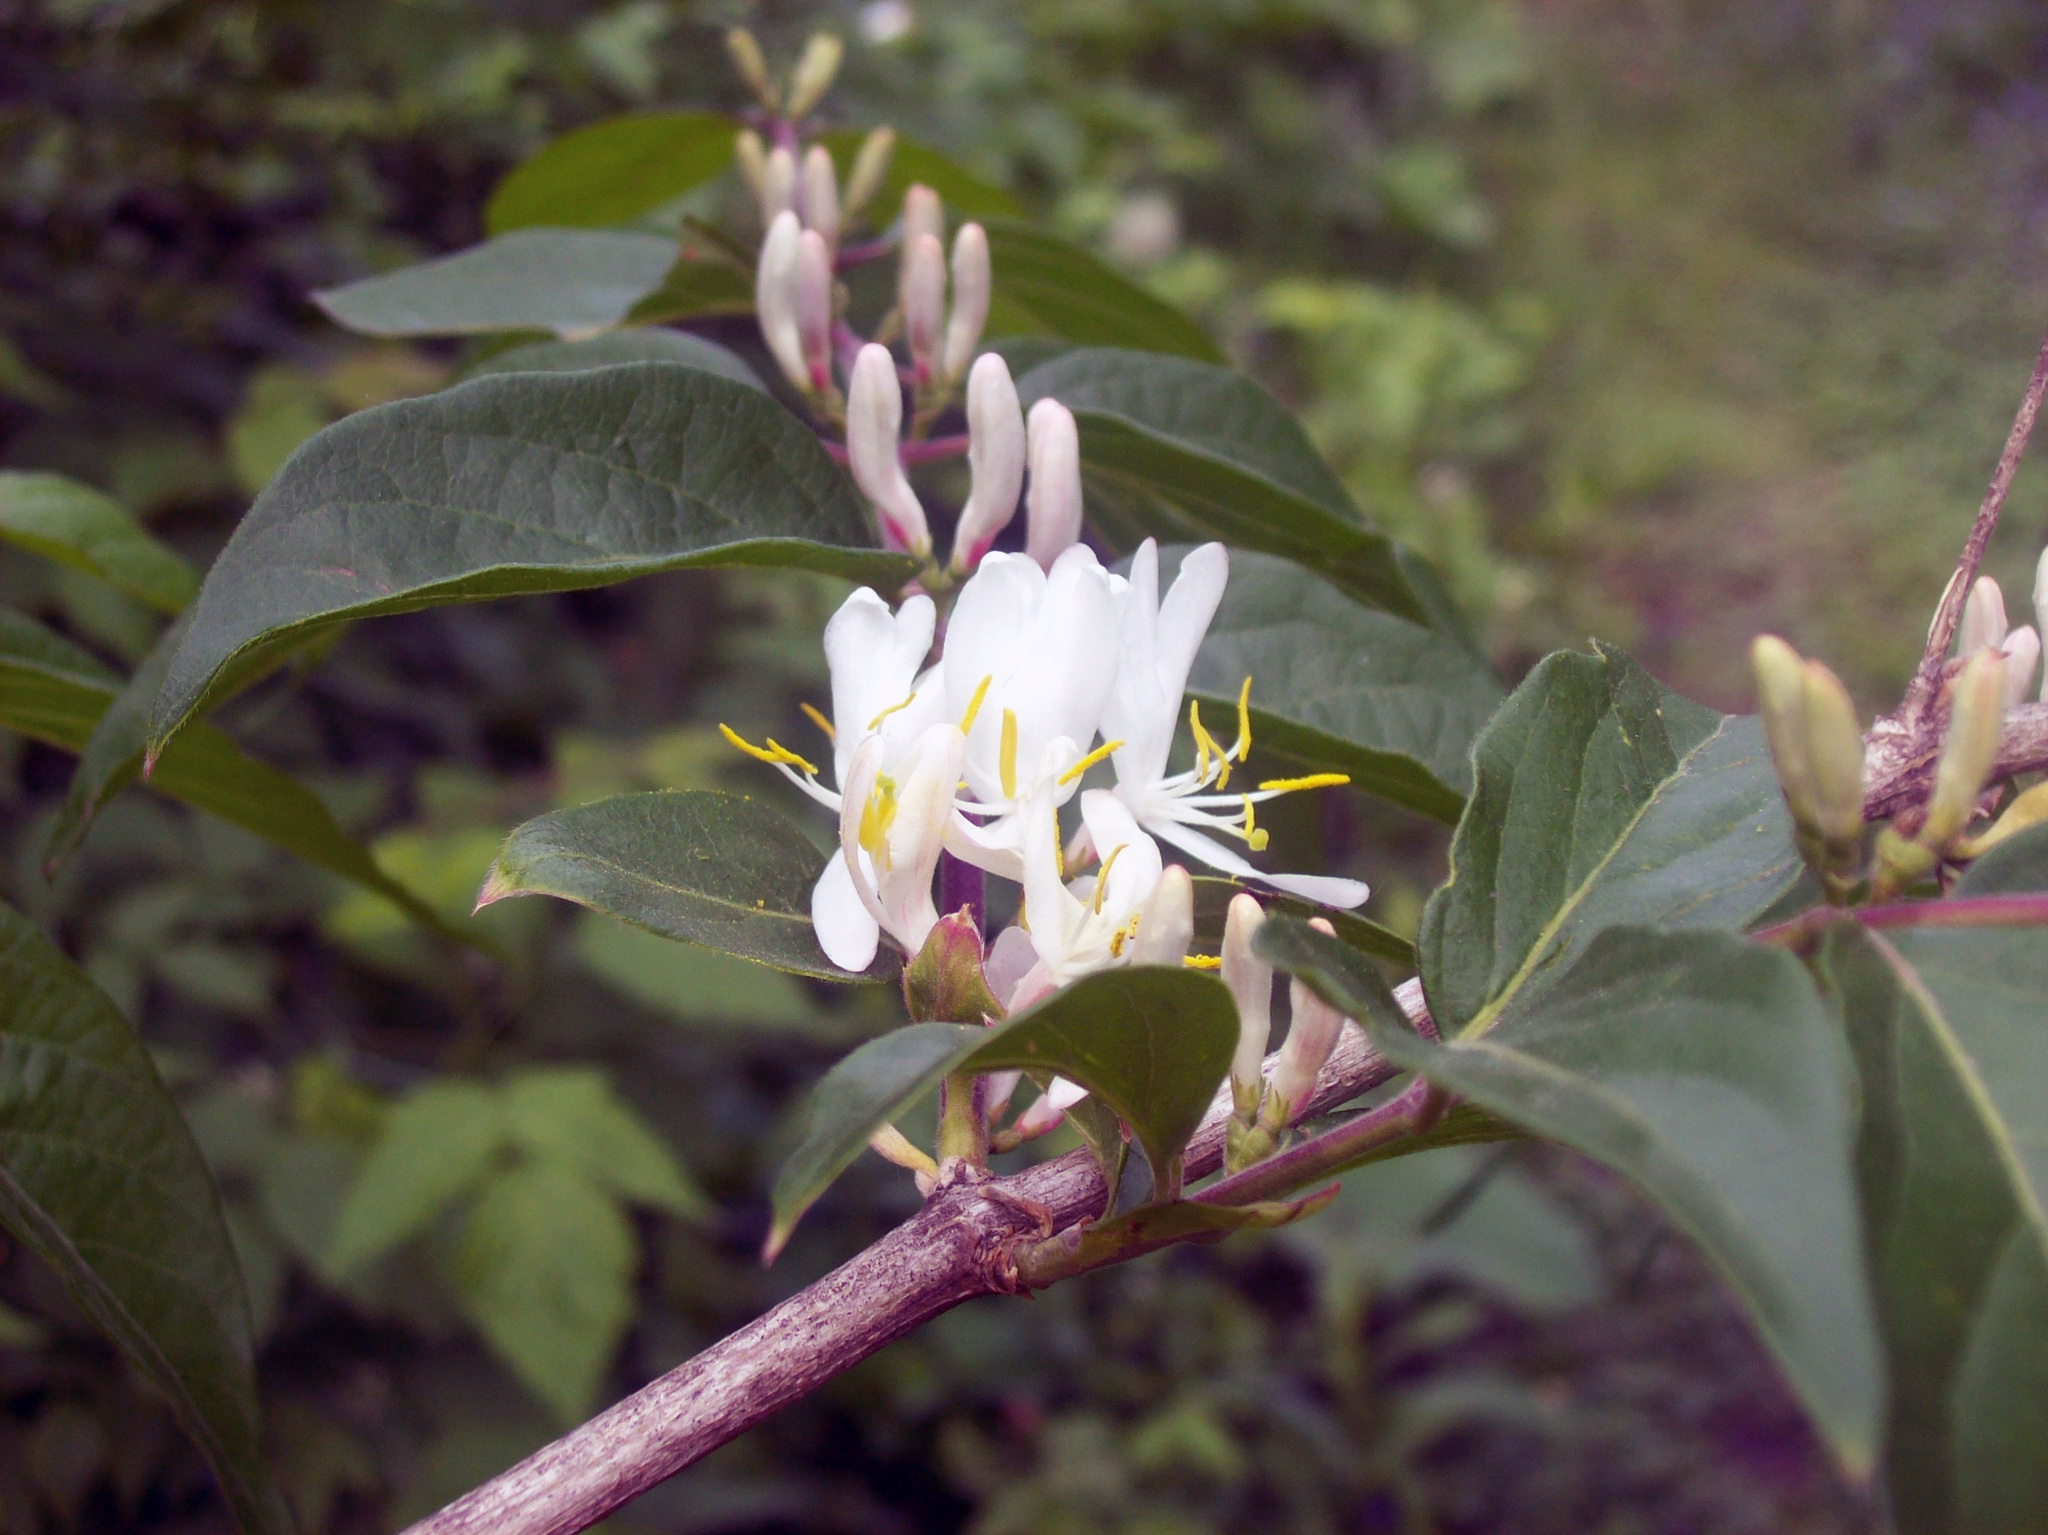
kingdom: Plantae
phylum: Tracheophyta
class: Magnoliopsida
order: Dipsacales
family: Caprifoliaceae
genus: Lonicera
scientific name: Lonicera maackii
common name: Amur honeysuckle
